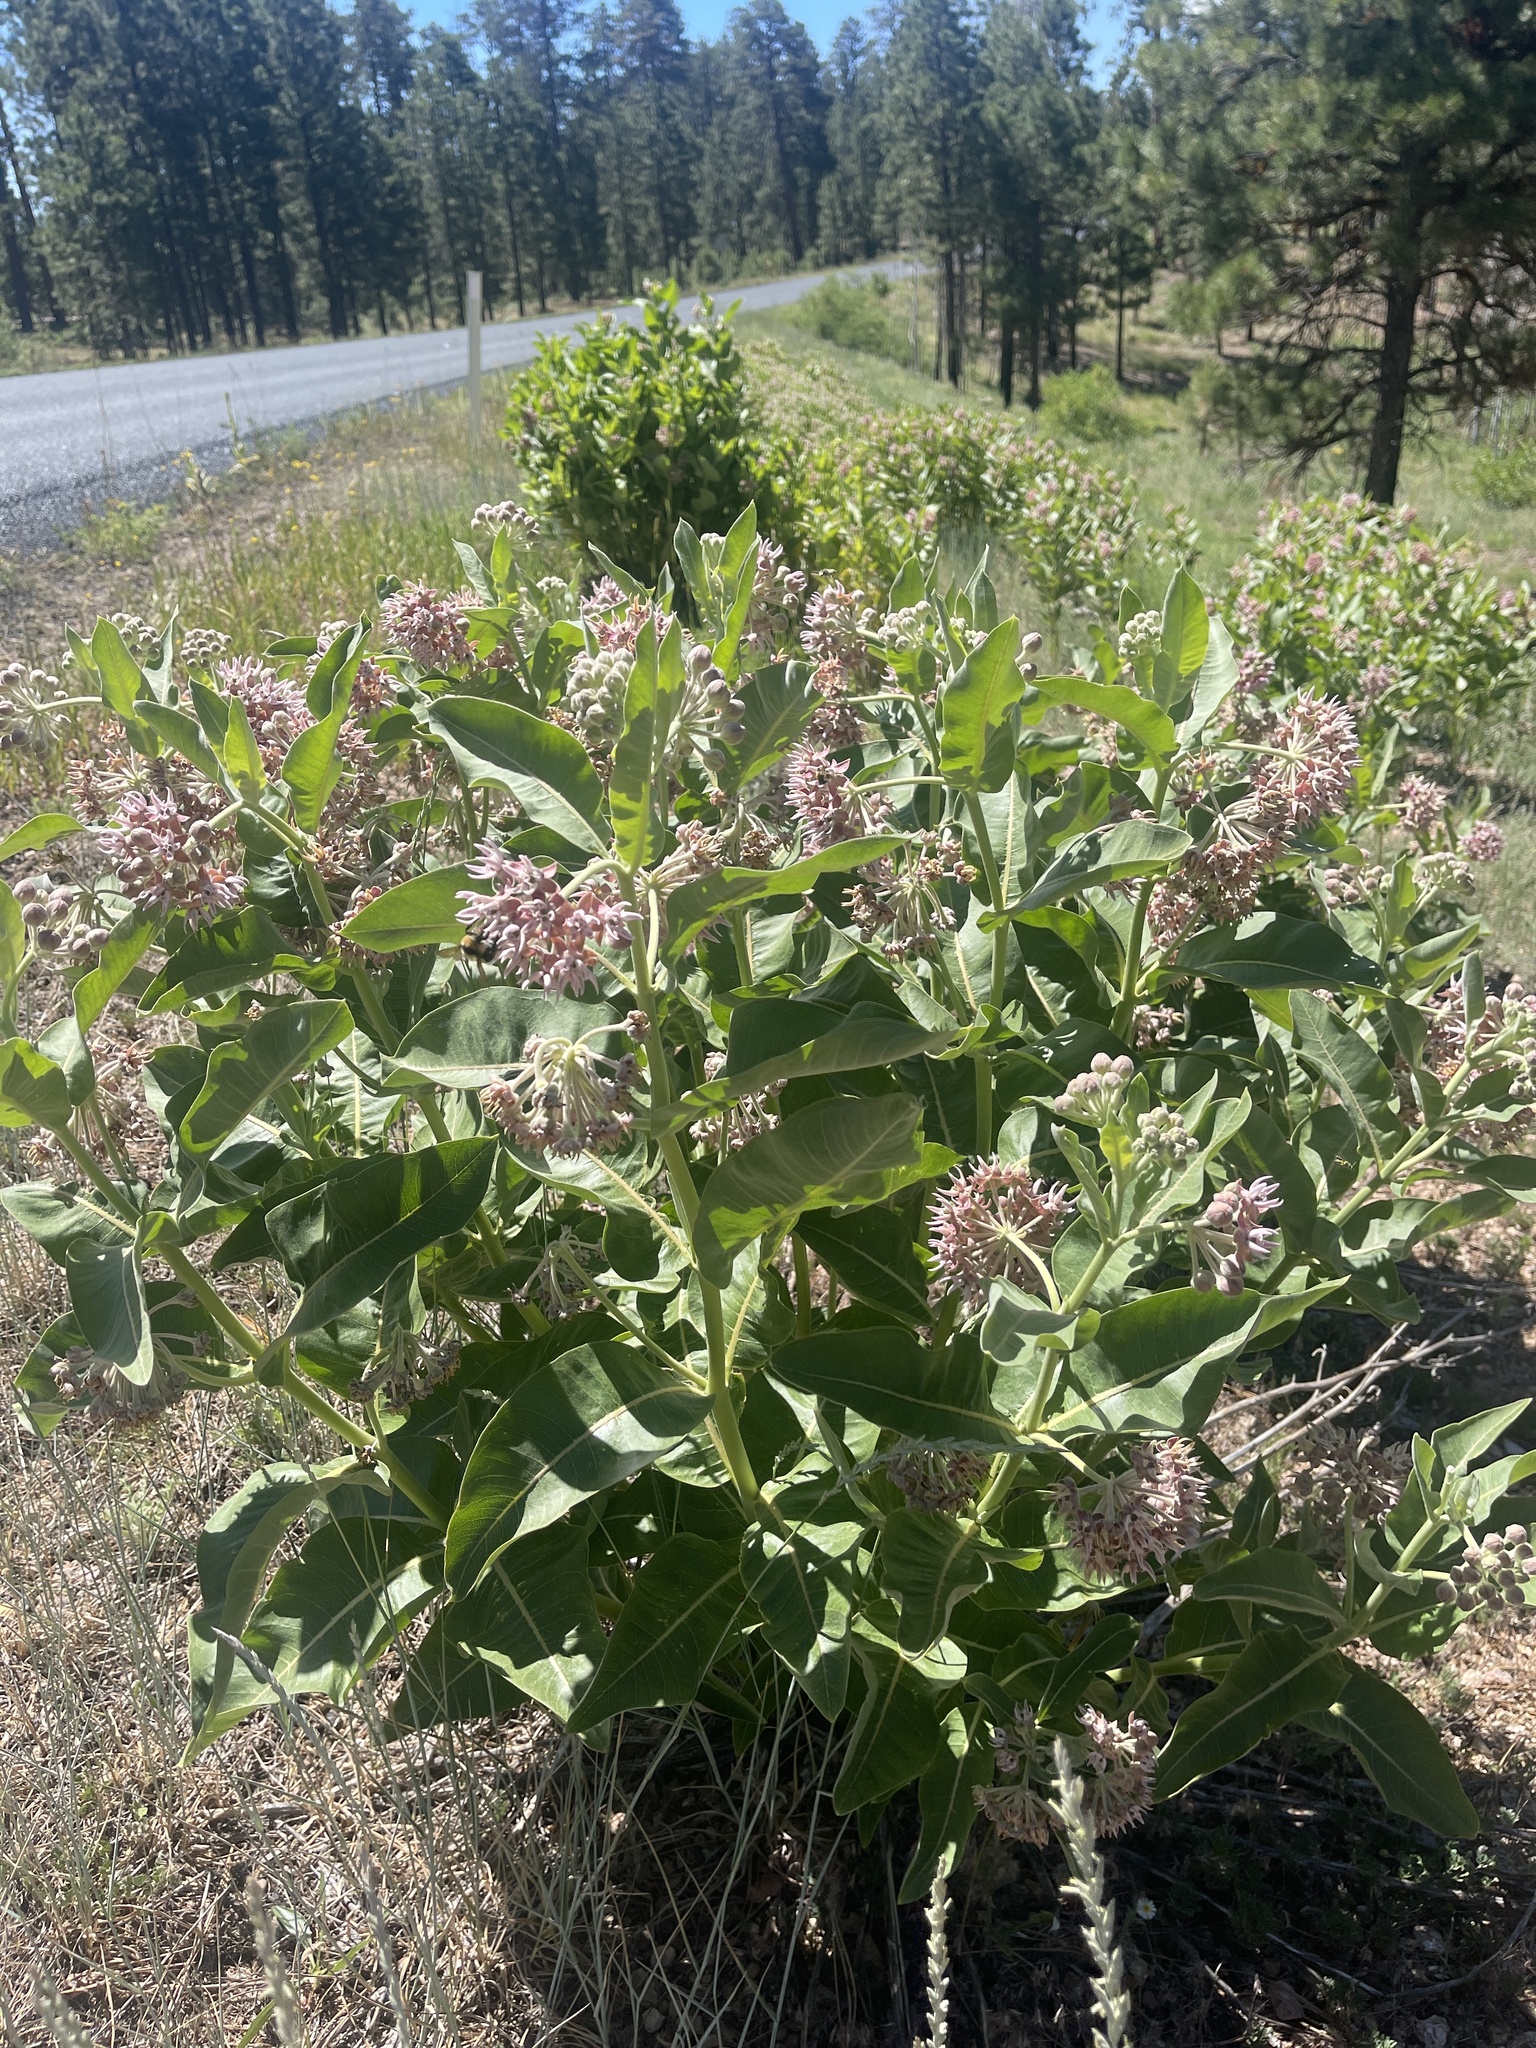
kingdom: Plantae
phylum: Tracheophyta
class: Magnoliopsida
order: Gentianales
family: Apocynaceae
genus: Asclepias
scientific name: Asclepias speciosa
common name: Showy milkweed
